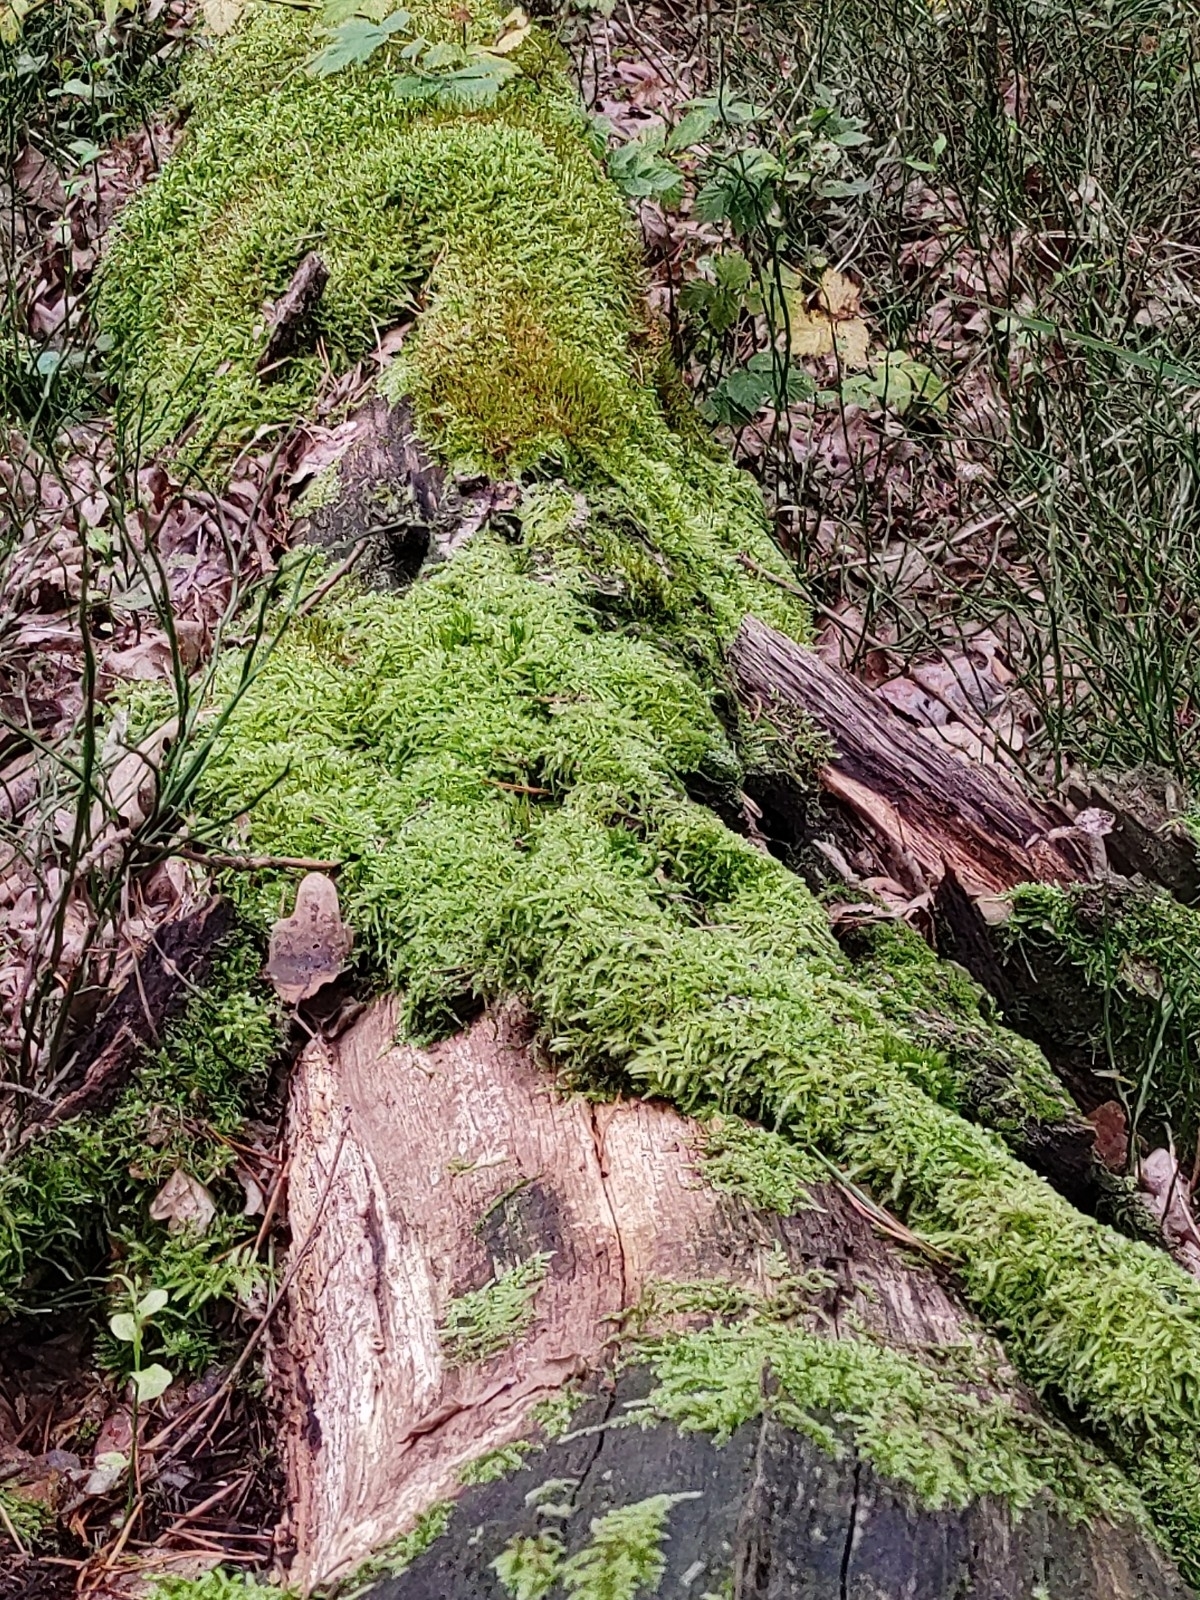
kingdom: Plantae
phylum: Bryophyta
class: Bryopsida
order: Hypnales
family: Hypnaceae
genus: Hypnum
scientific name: Hypnum cupressiforme
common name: Cypress-leaved plait-moss
